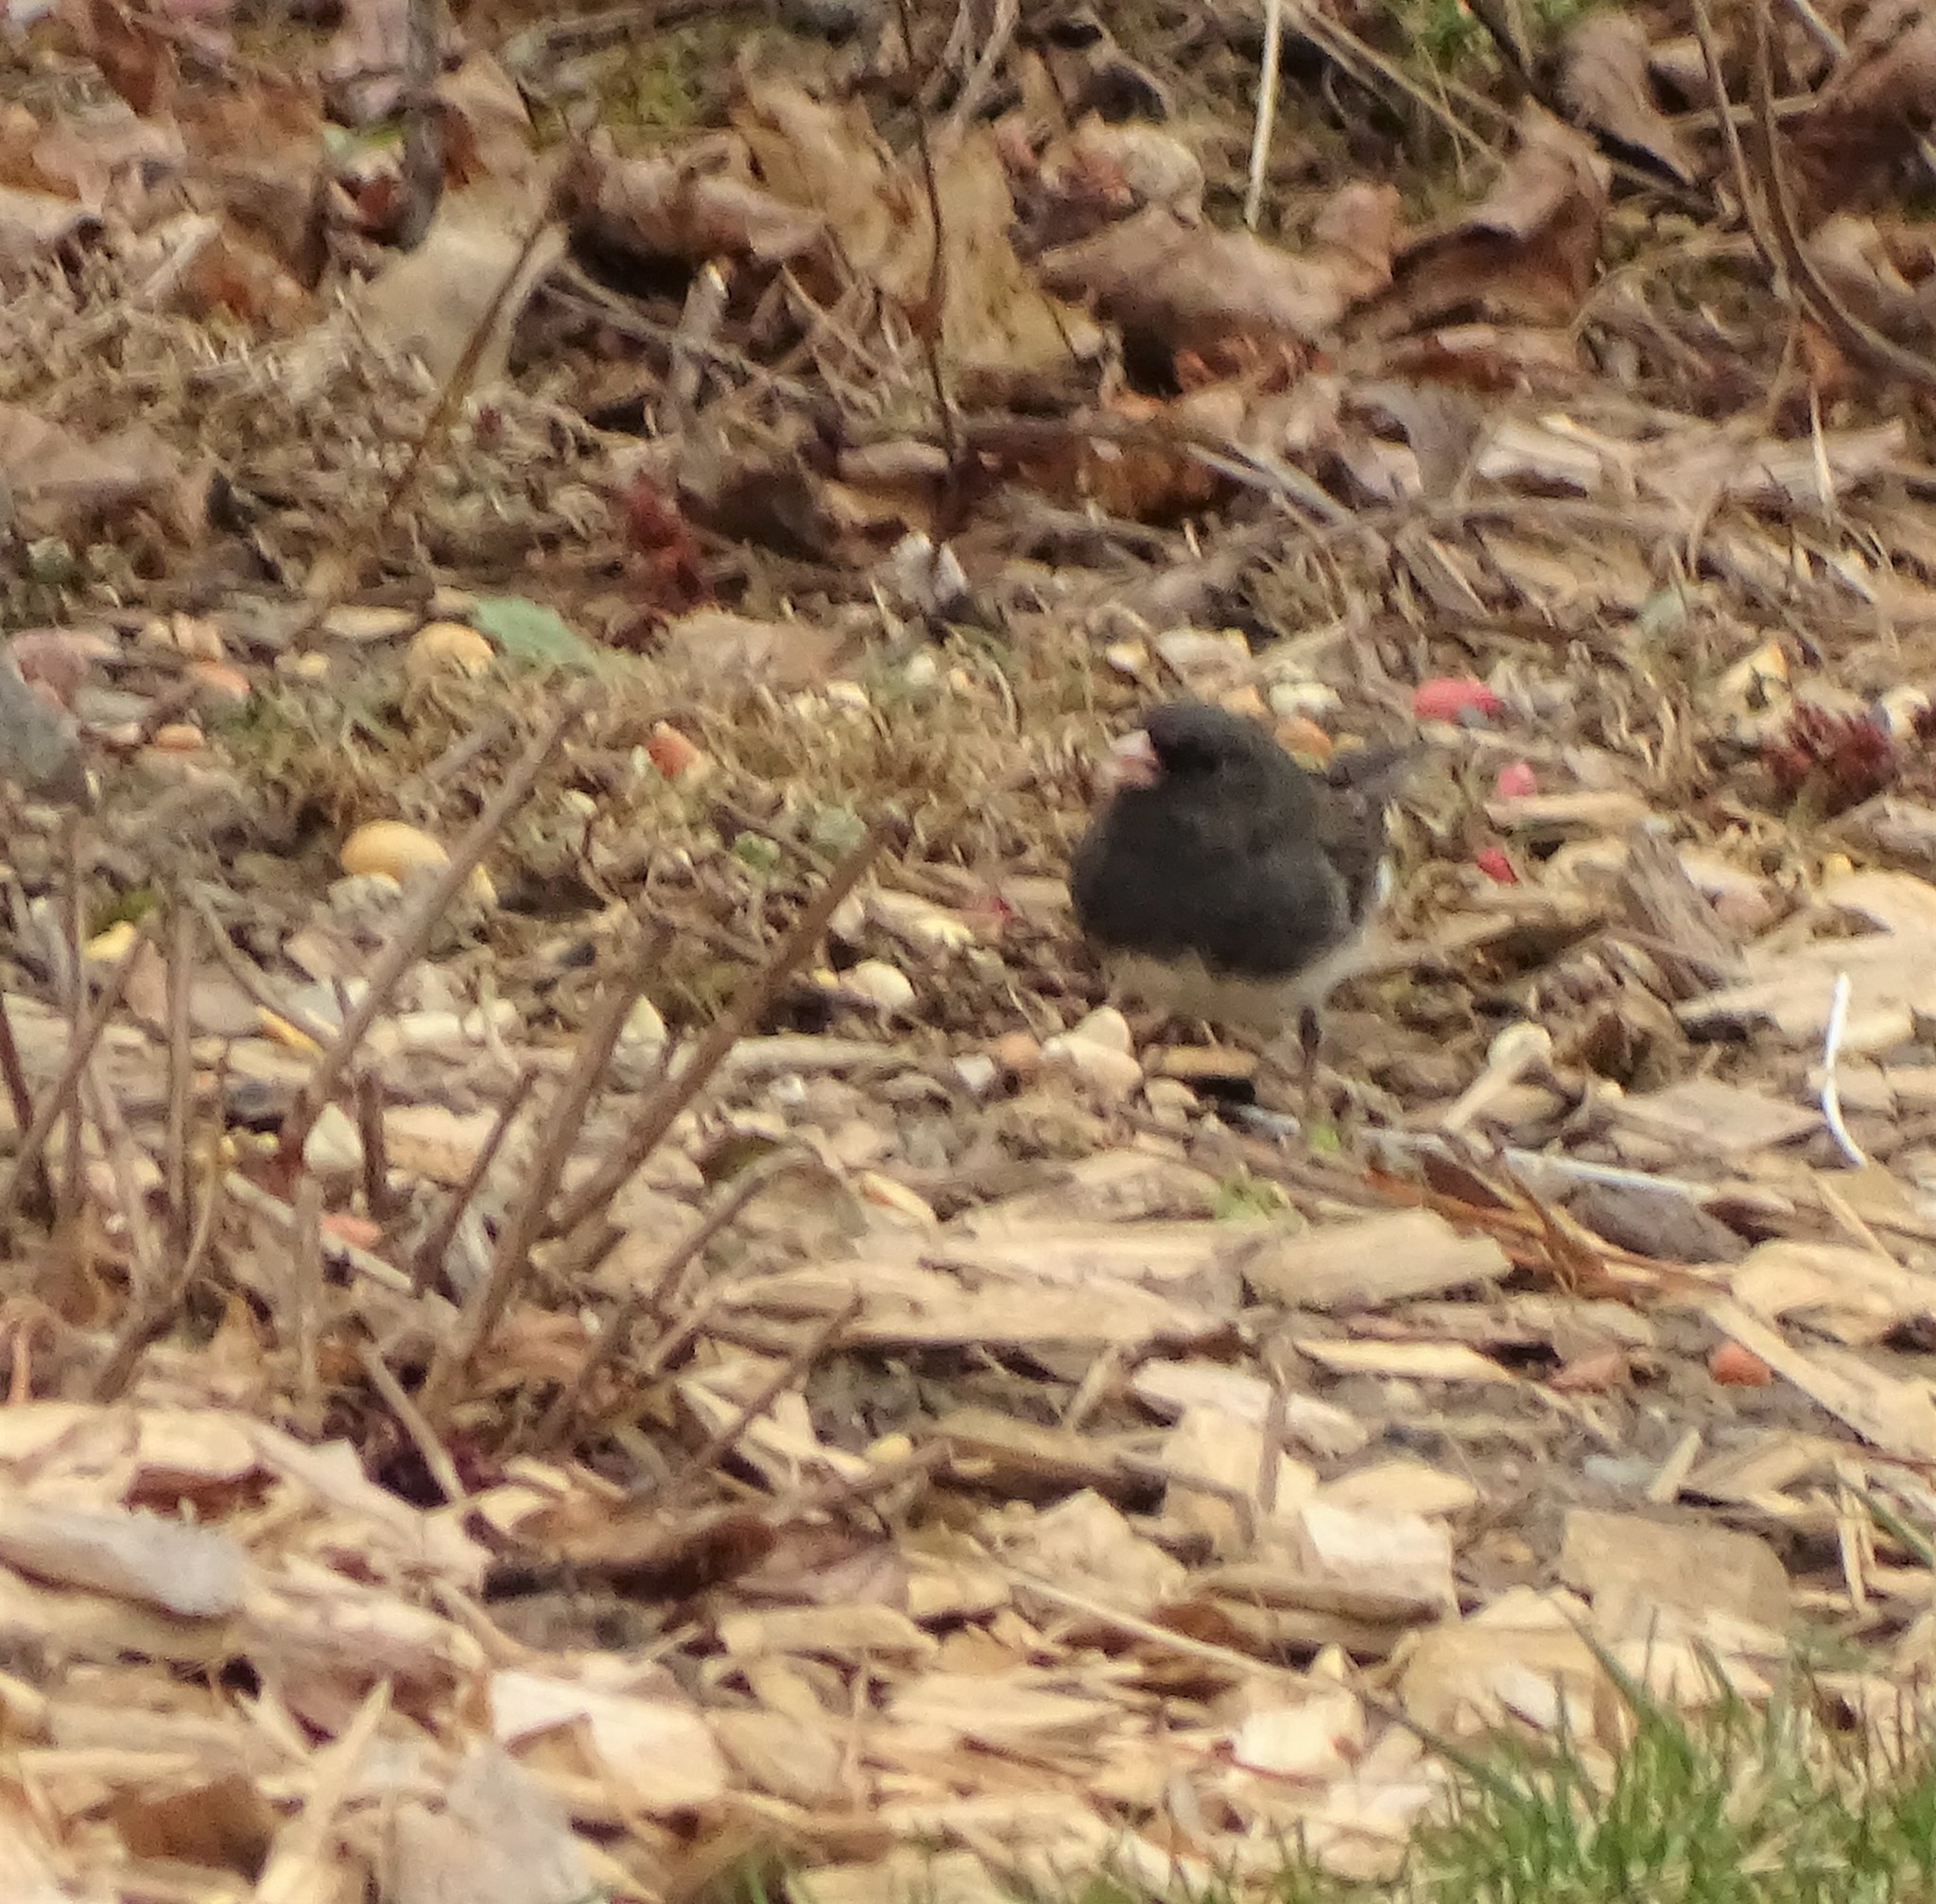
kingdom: Animalia
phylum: Chordata
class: Aves
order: Passeriformes
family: Passerellidae
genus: Junco
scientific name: Junco hyemalis
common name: Dark-eyed junco
